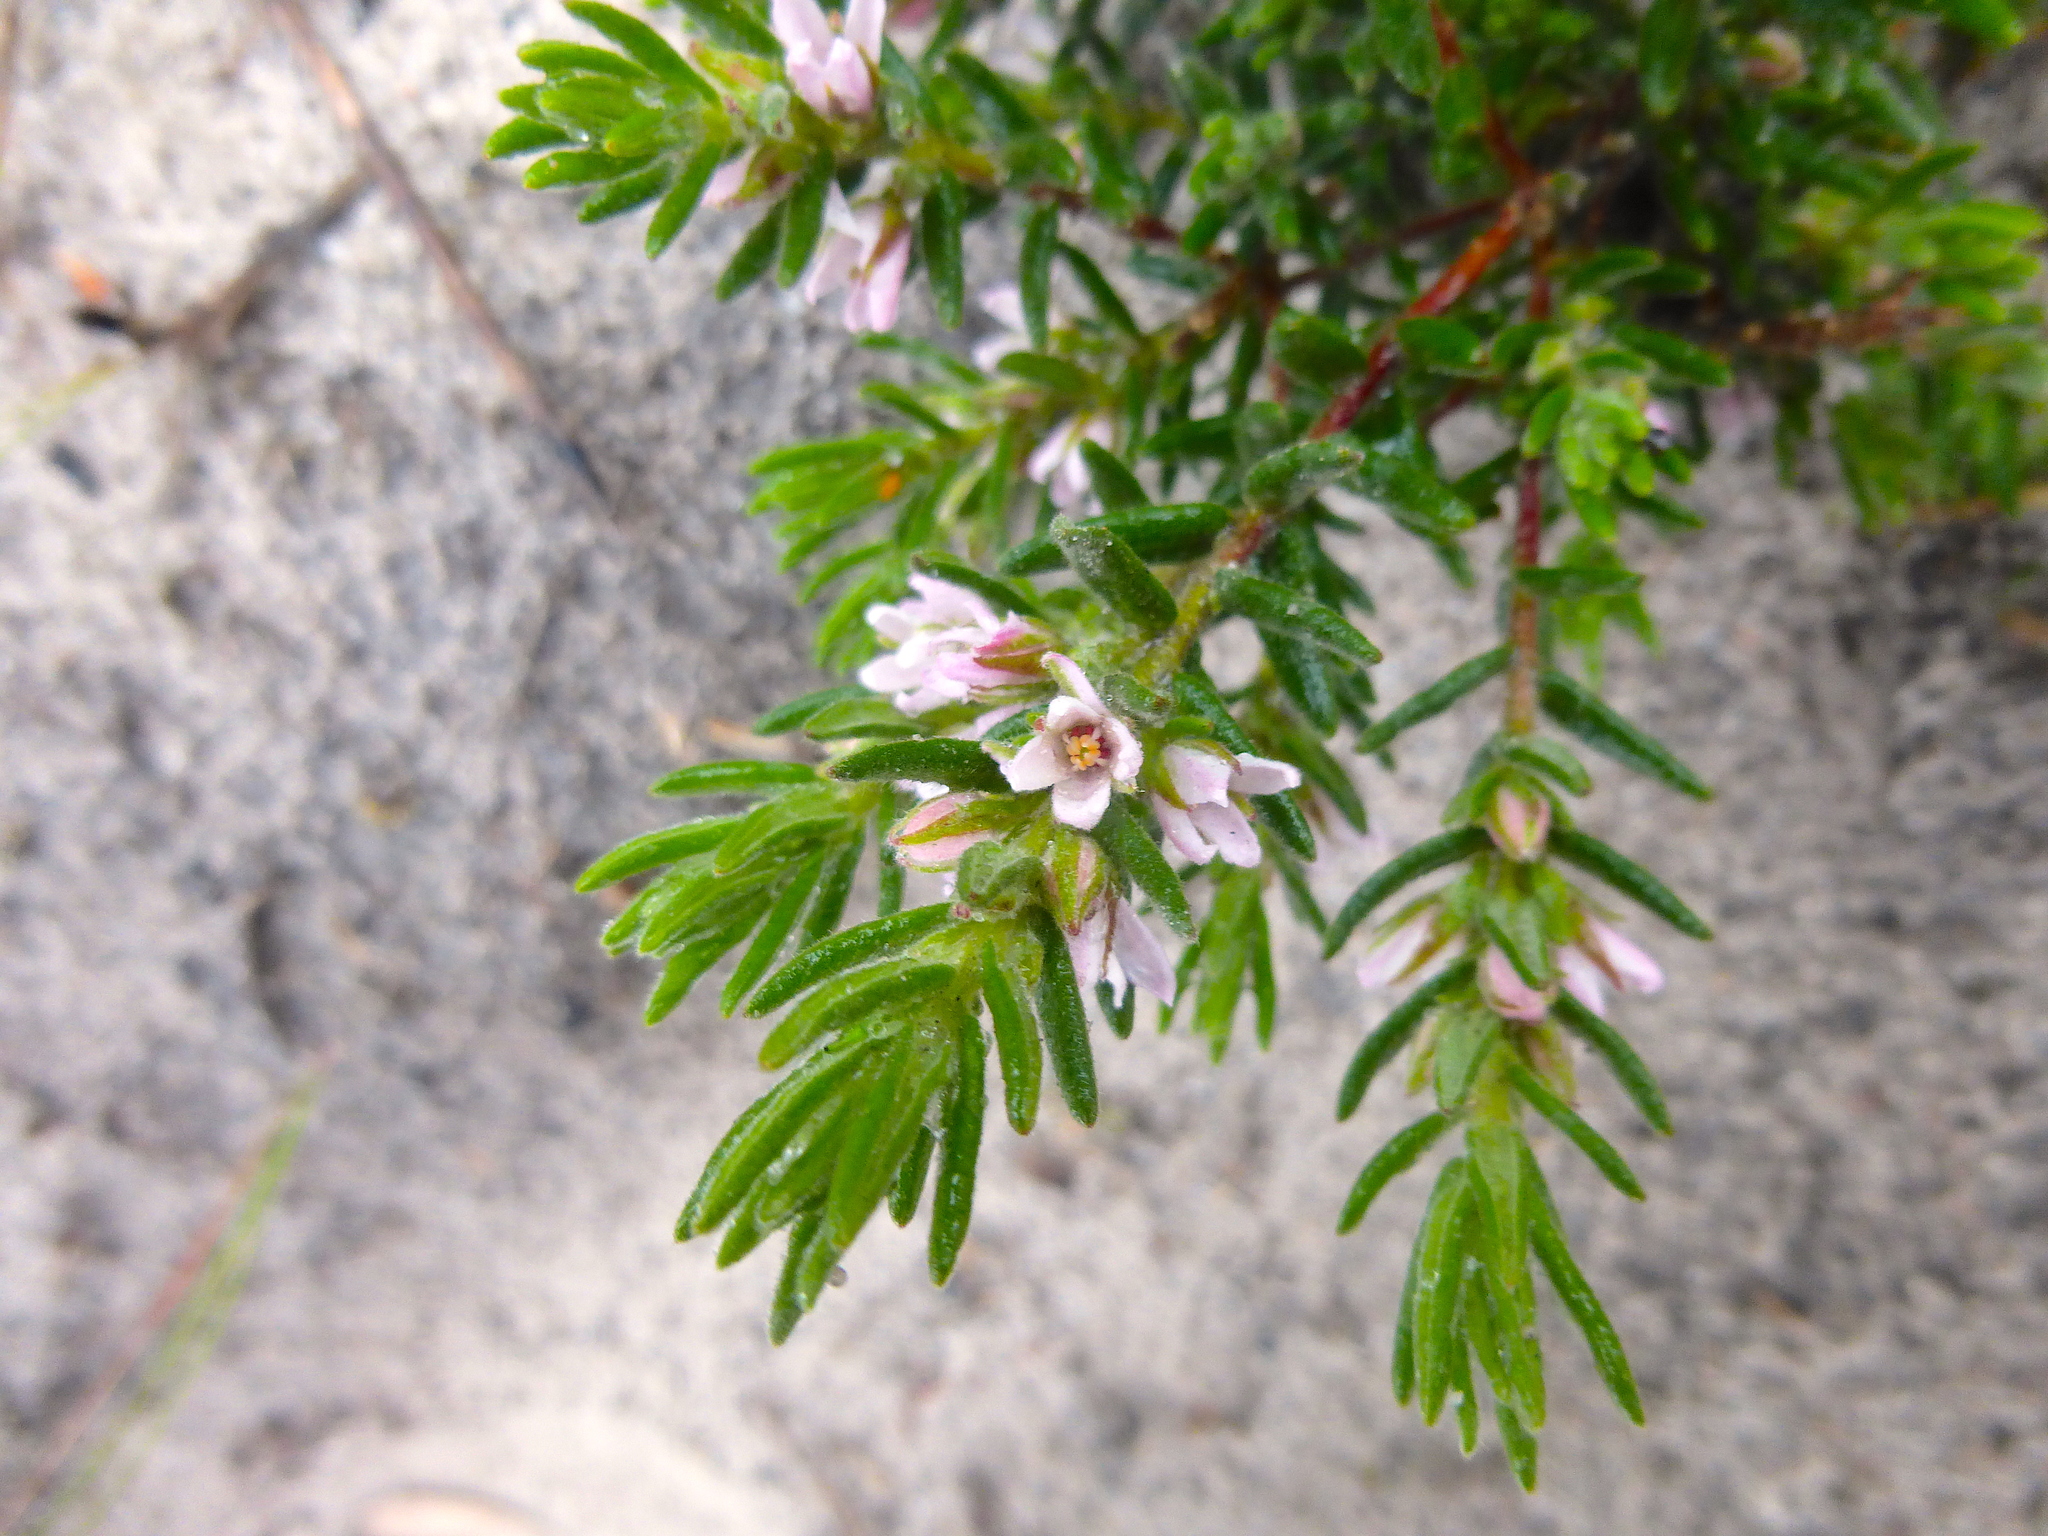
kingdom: Plantae
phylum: Tracheophyta
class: Magnoliopsida
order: Sapindales
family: Rutaceae
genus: Zieria
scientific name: Zieria veronicea
